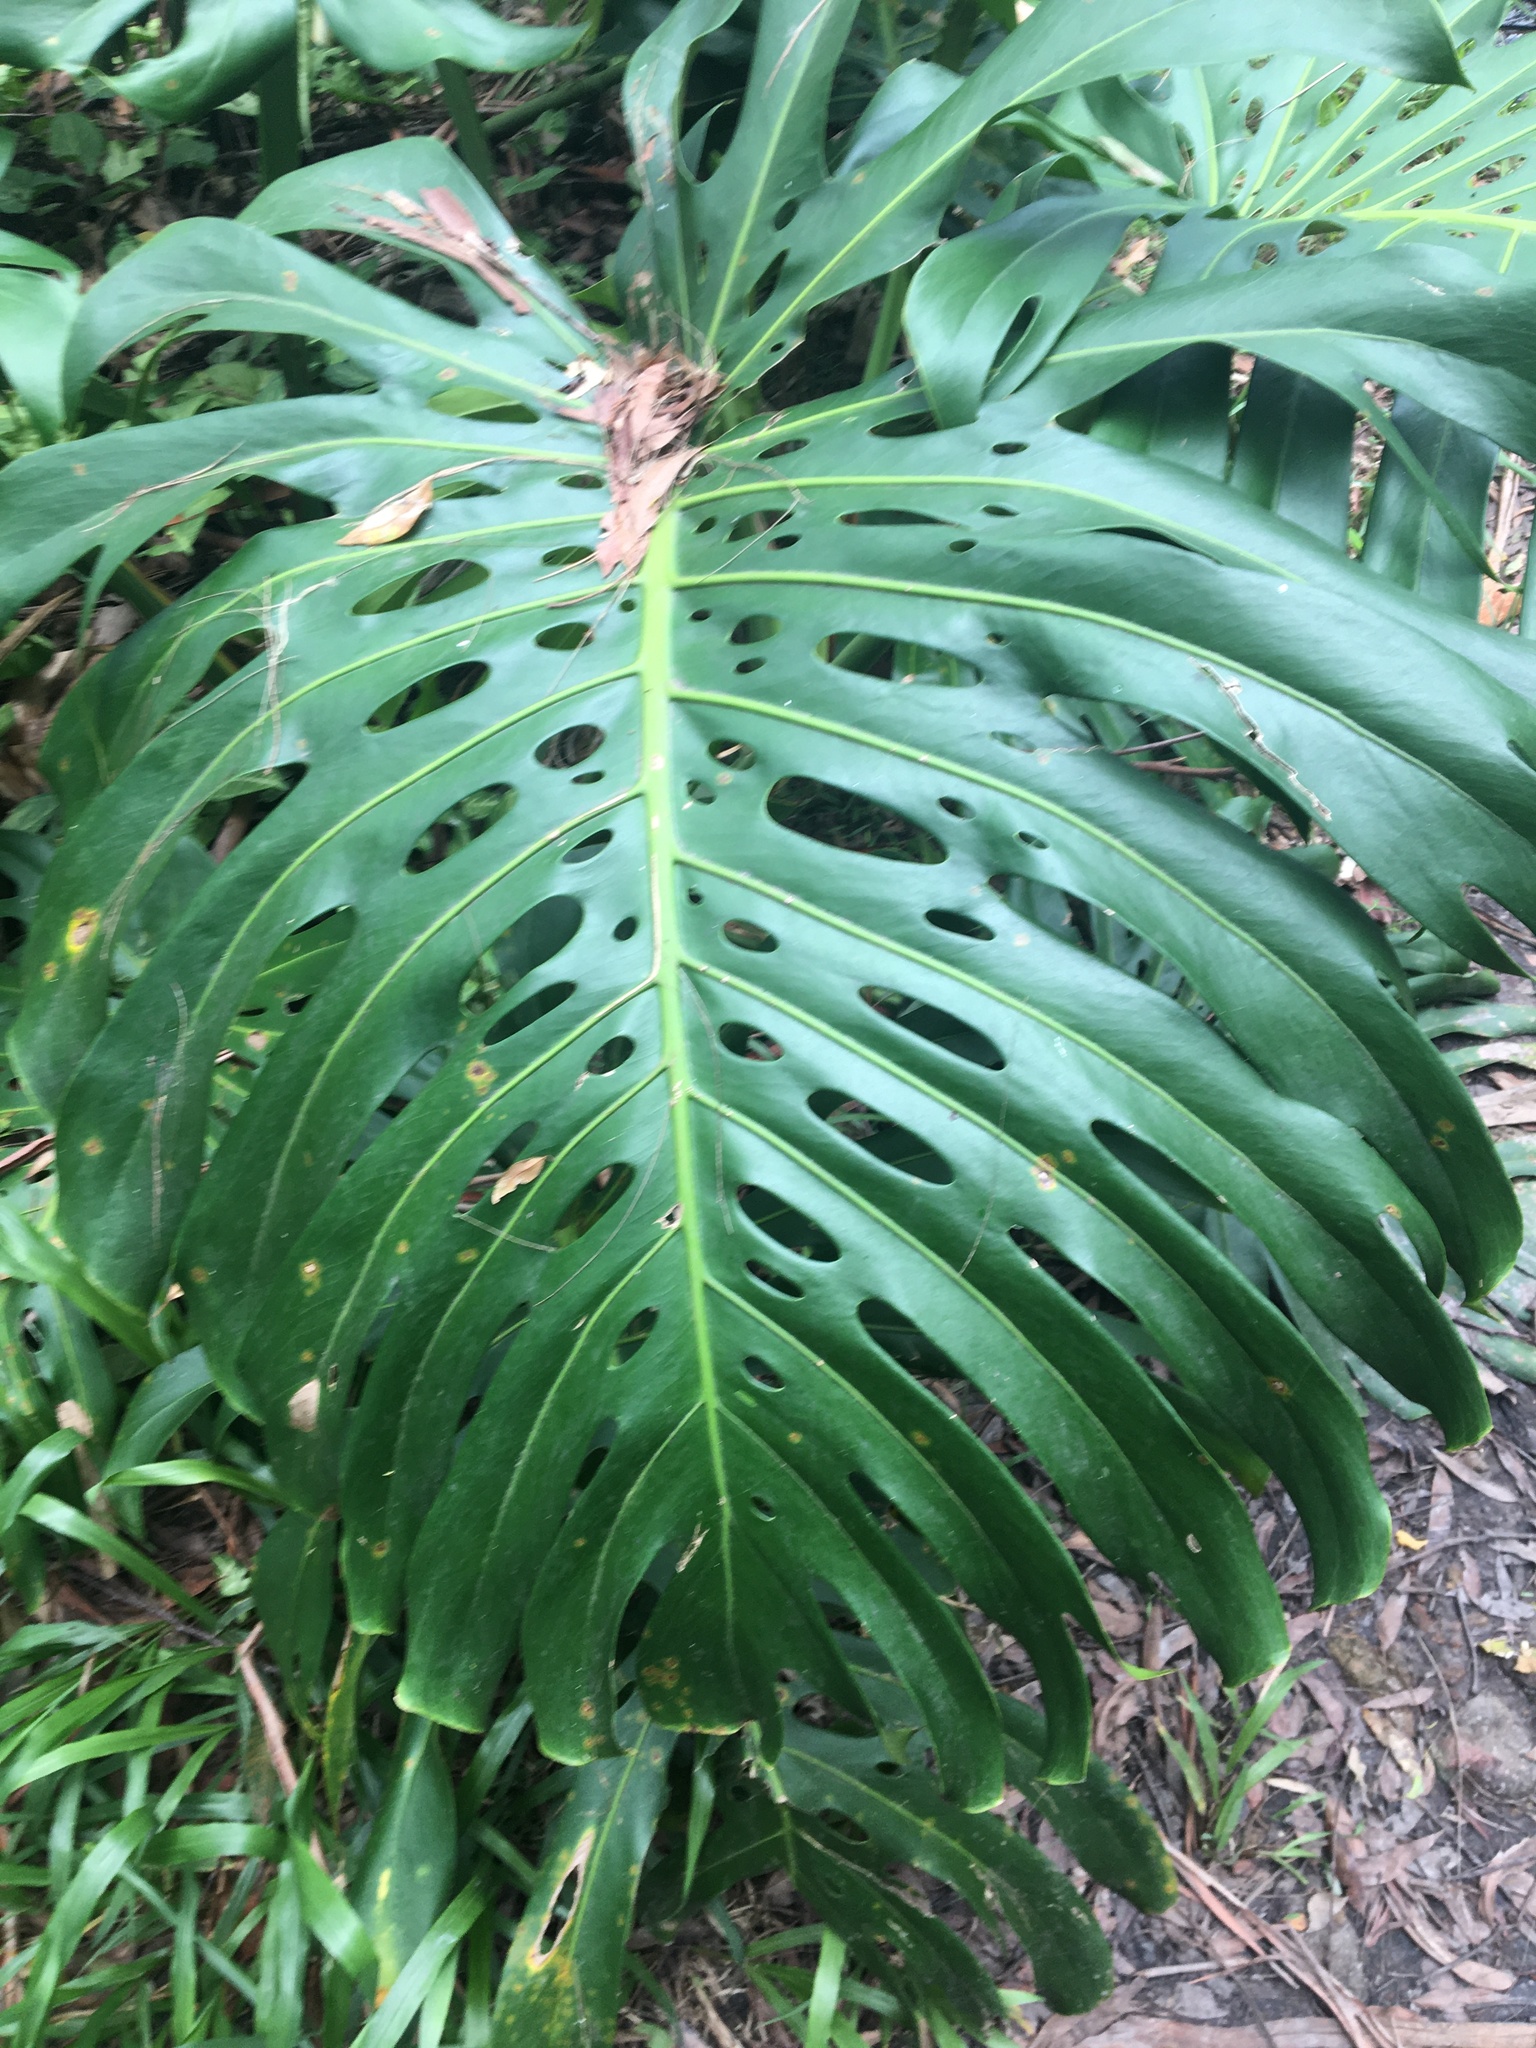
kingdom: Plantae
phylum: Tracheophyta
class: Liliopsida
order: Alismatales
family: Araceae
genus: Monstera
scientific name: Monstera deliciosa
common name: Cut-leaf-philodendron
